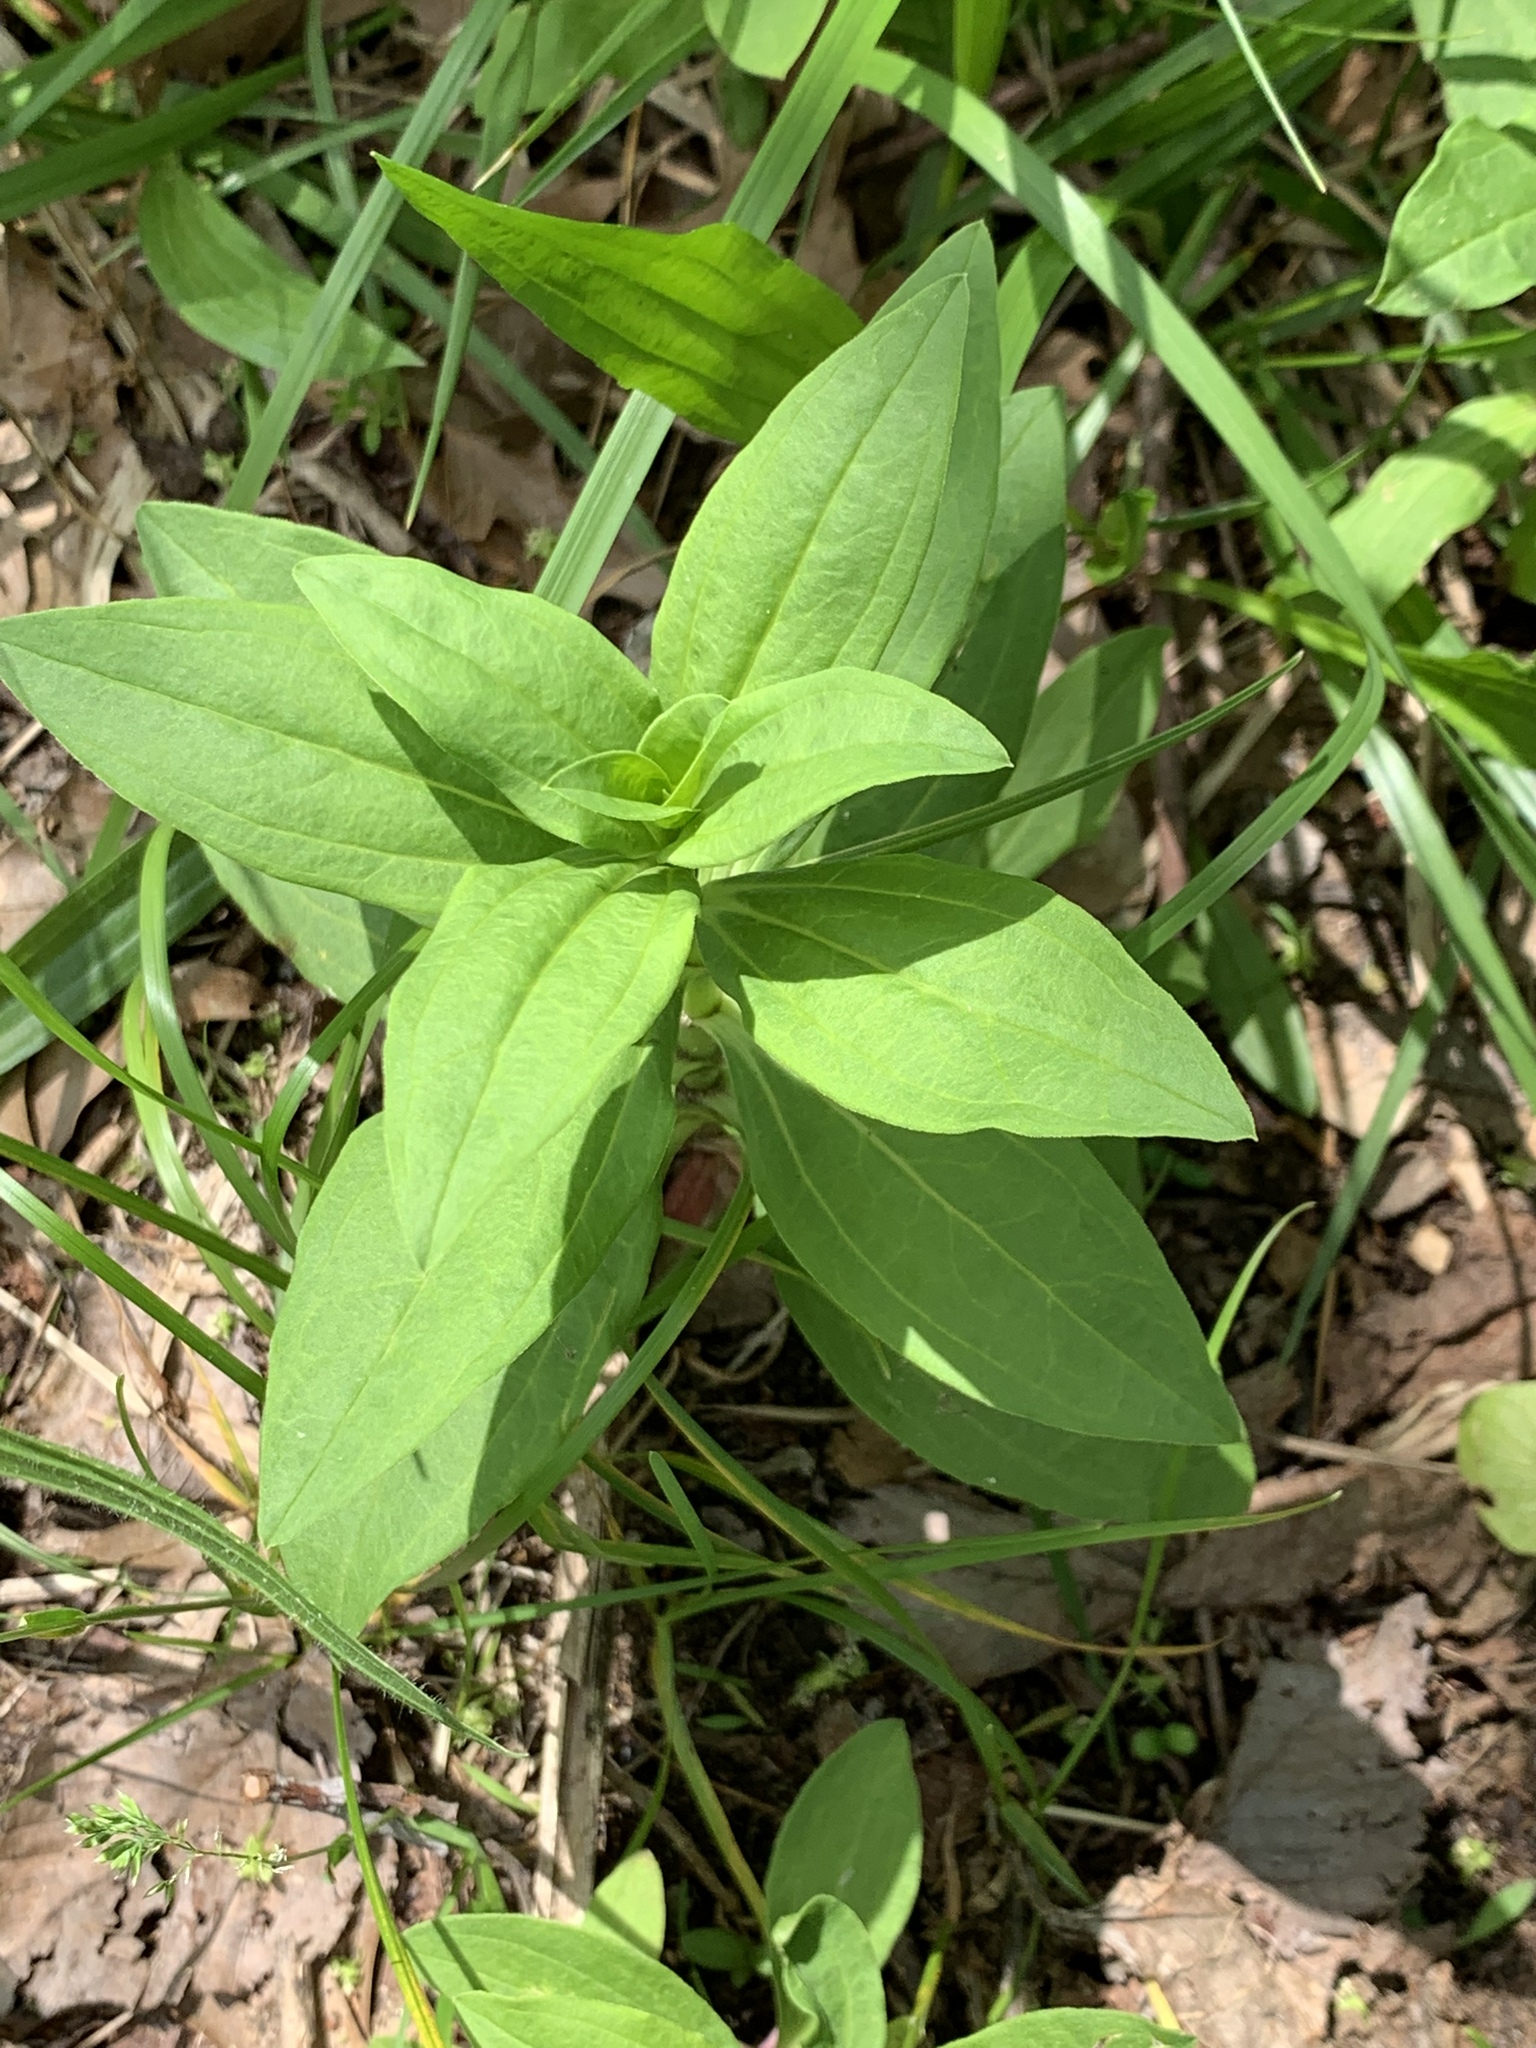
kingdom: Plantae
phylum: Tracheophyta
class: Magnoliopsida
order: Caryophyllales
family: Caryophyllaceae
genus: Saponaria
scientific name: Saponaria officinalis
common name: Soapwort
